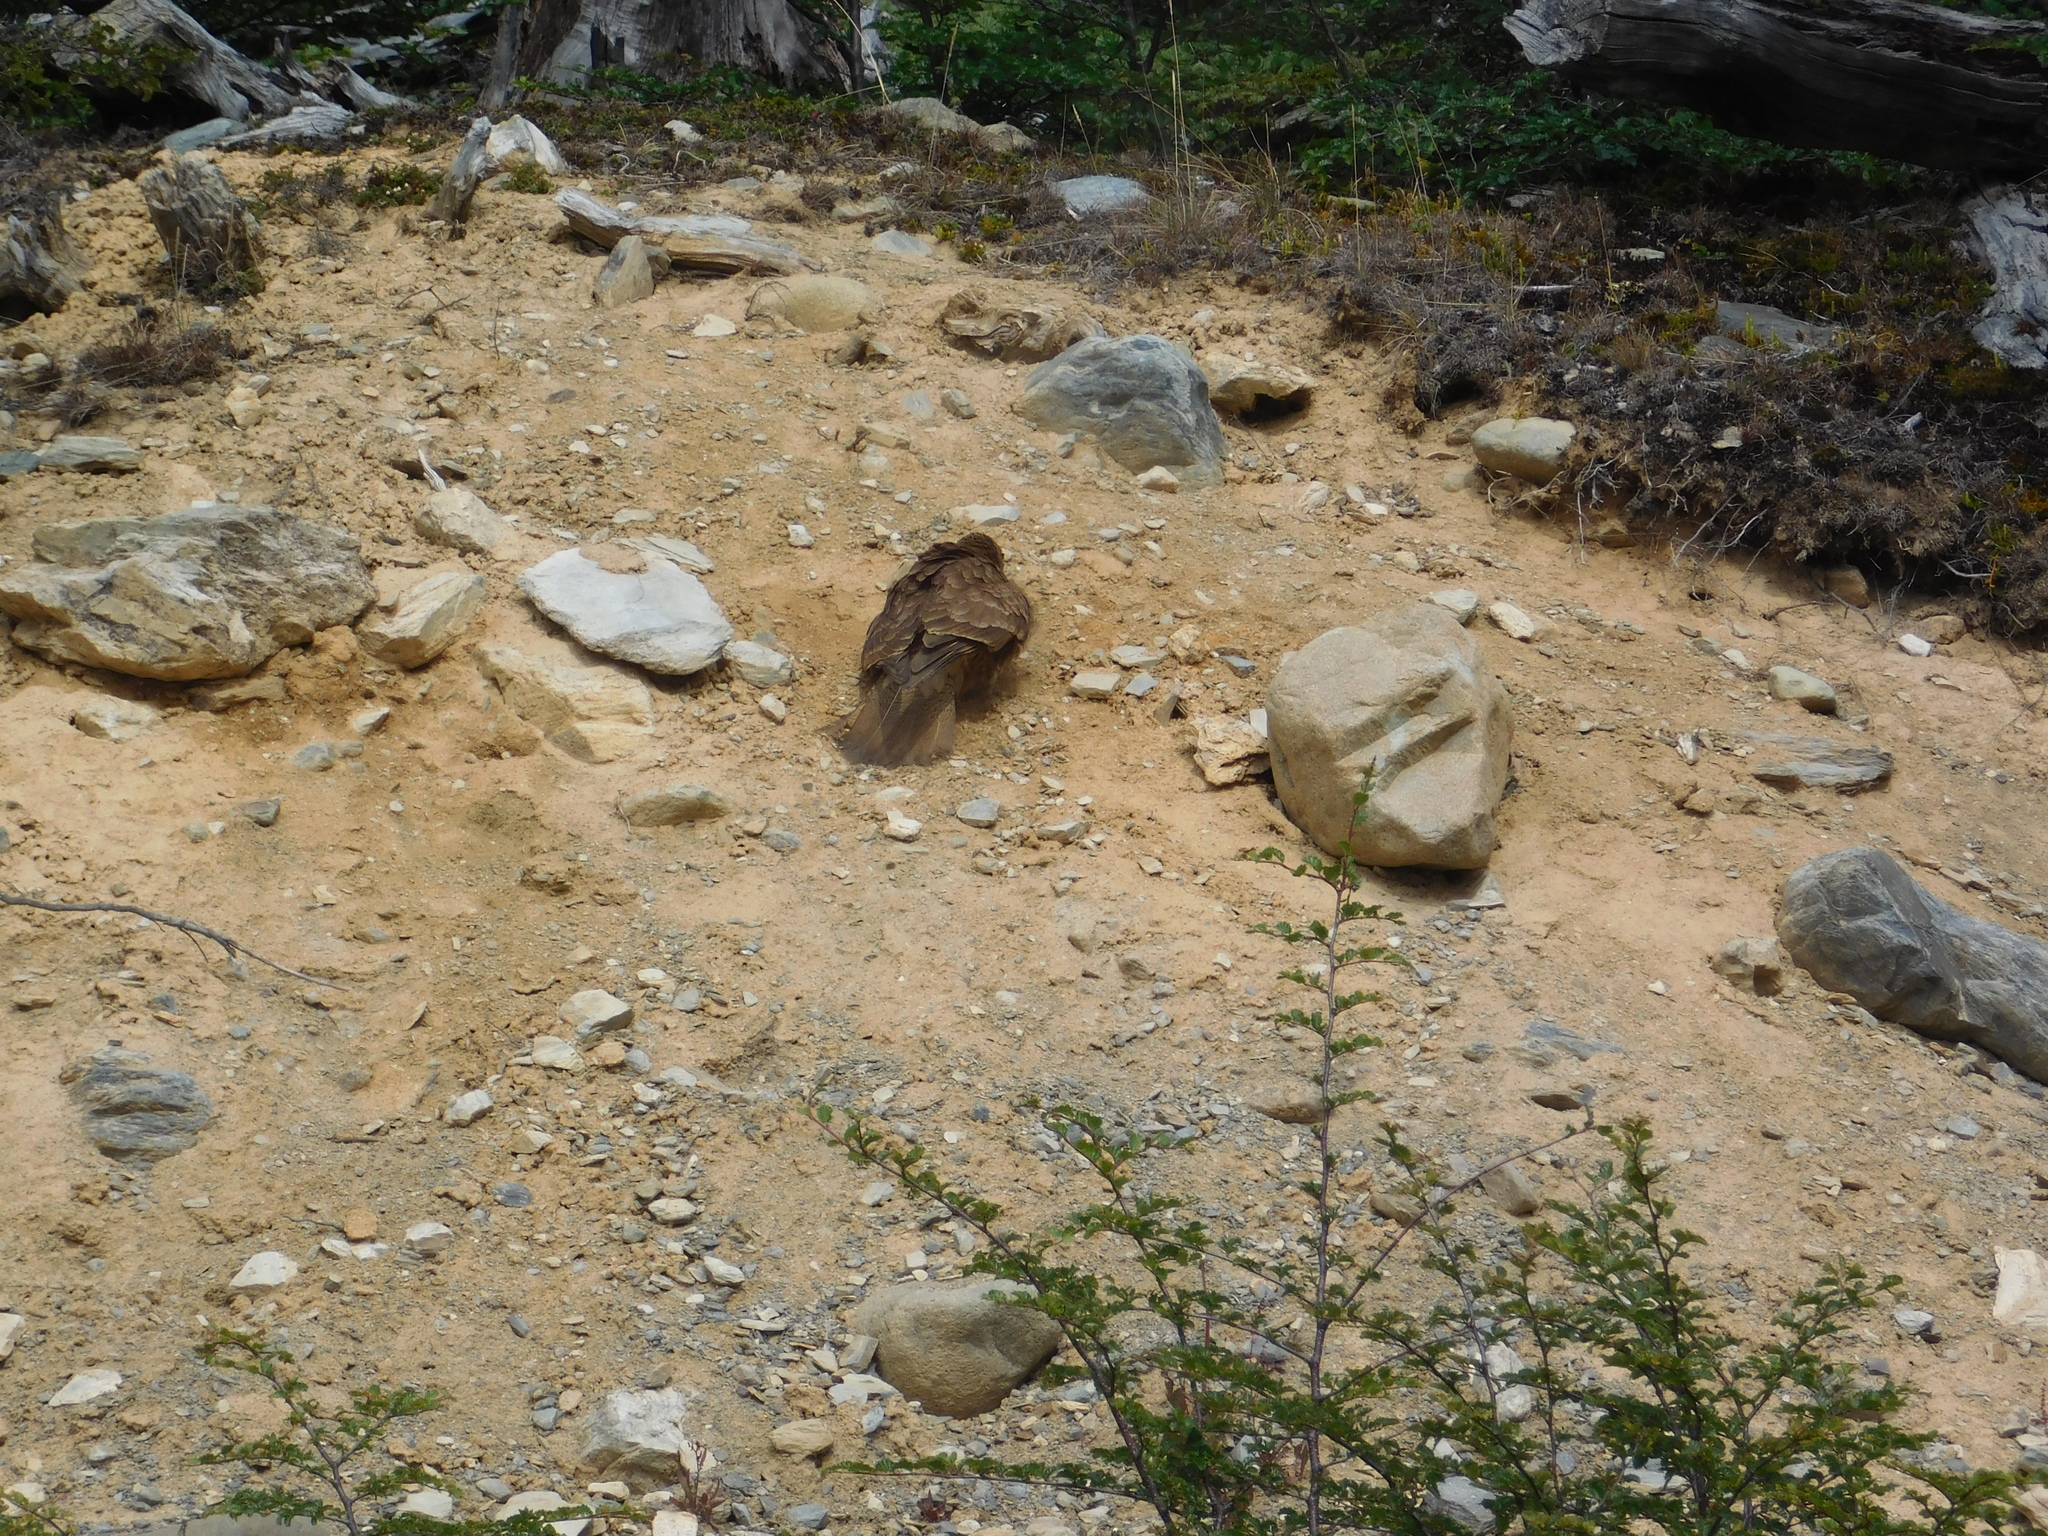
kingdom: Animalia
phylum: Chordata
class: Aves
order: Falconiformes
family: Falconidae
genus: Daptrius
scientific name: Daptrius
